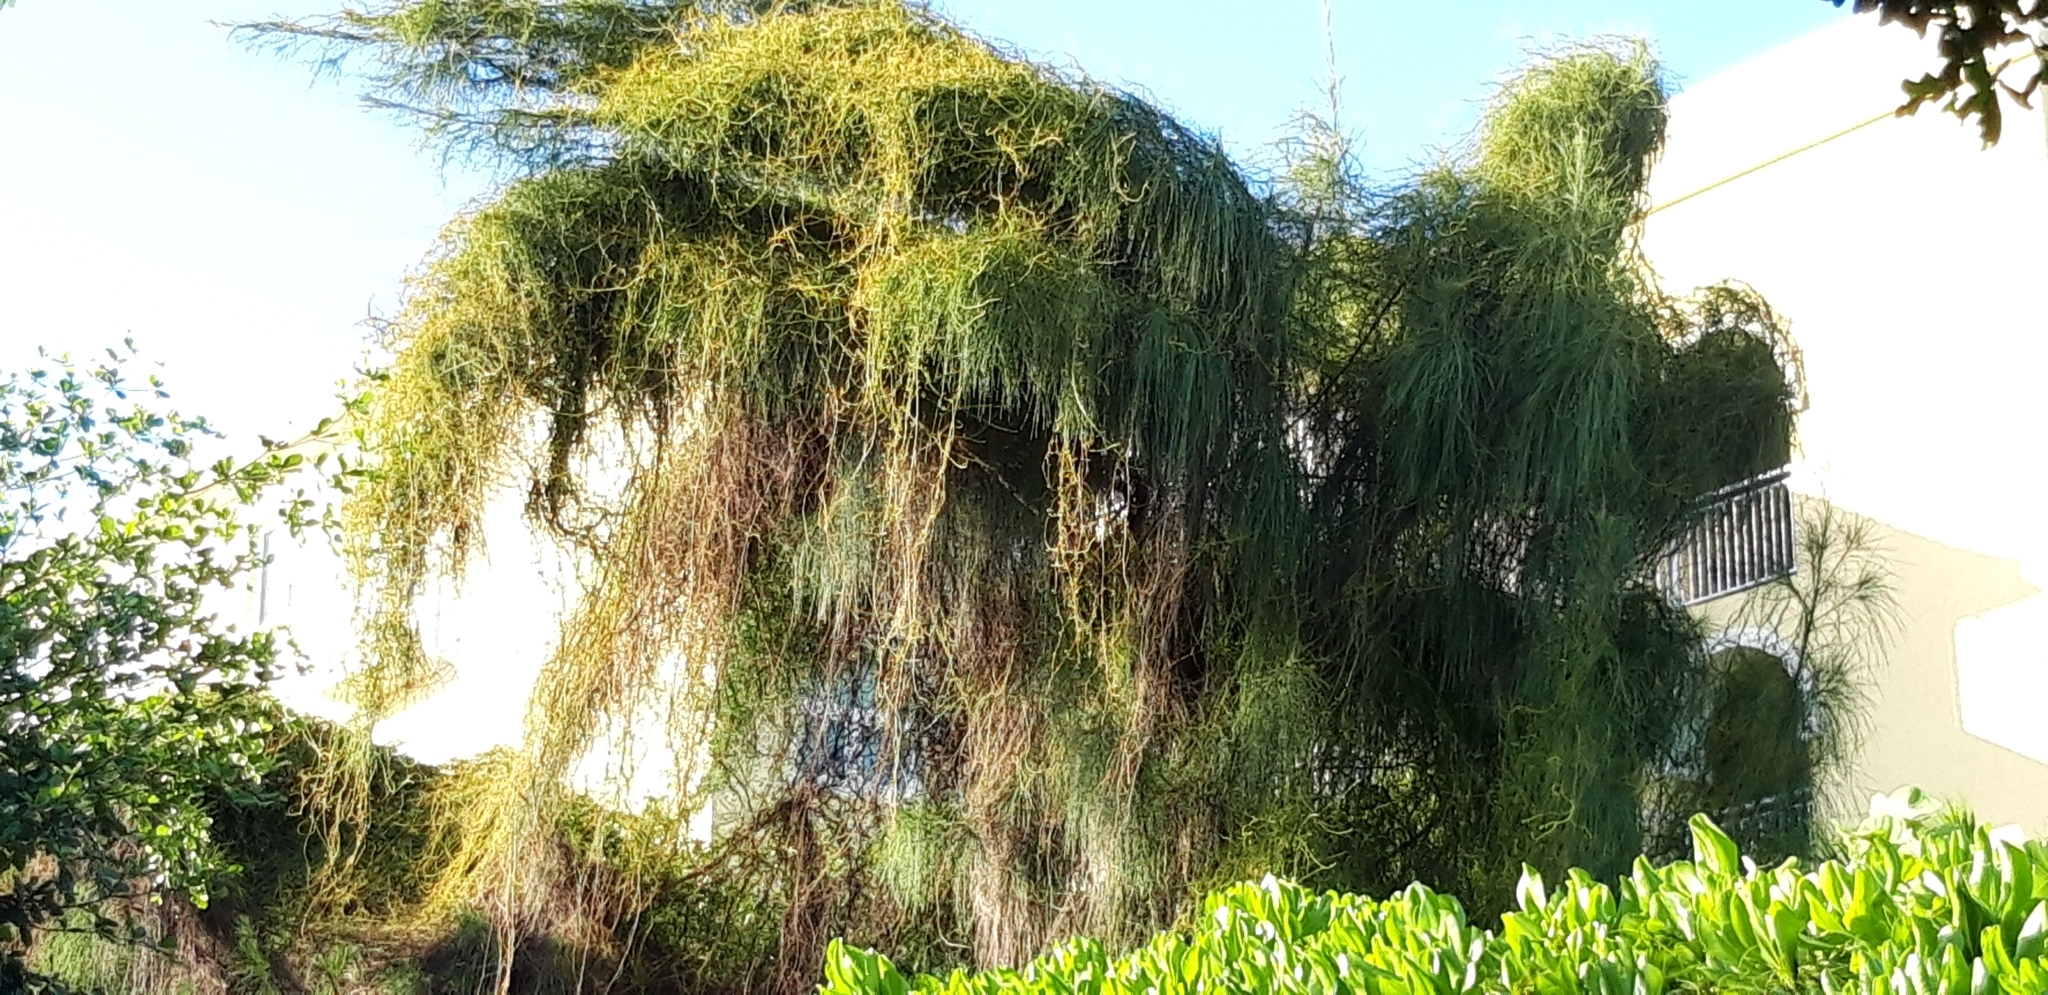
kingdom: Plantae
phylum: Tracheophyta
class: Magnoliopsida
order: Laurales
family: Lauraceae
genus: Cassytha
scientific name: Cassytha filiformis
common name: Dodder-laurel
